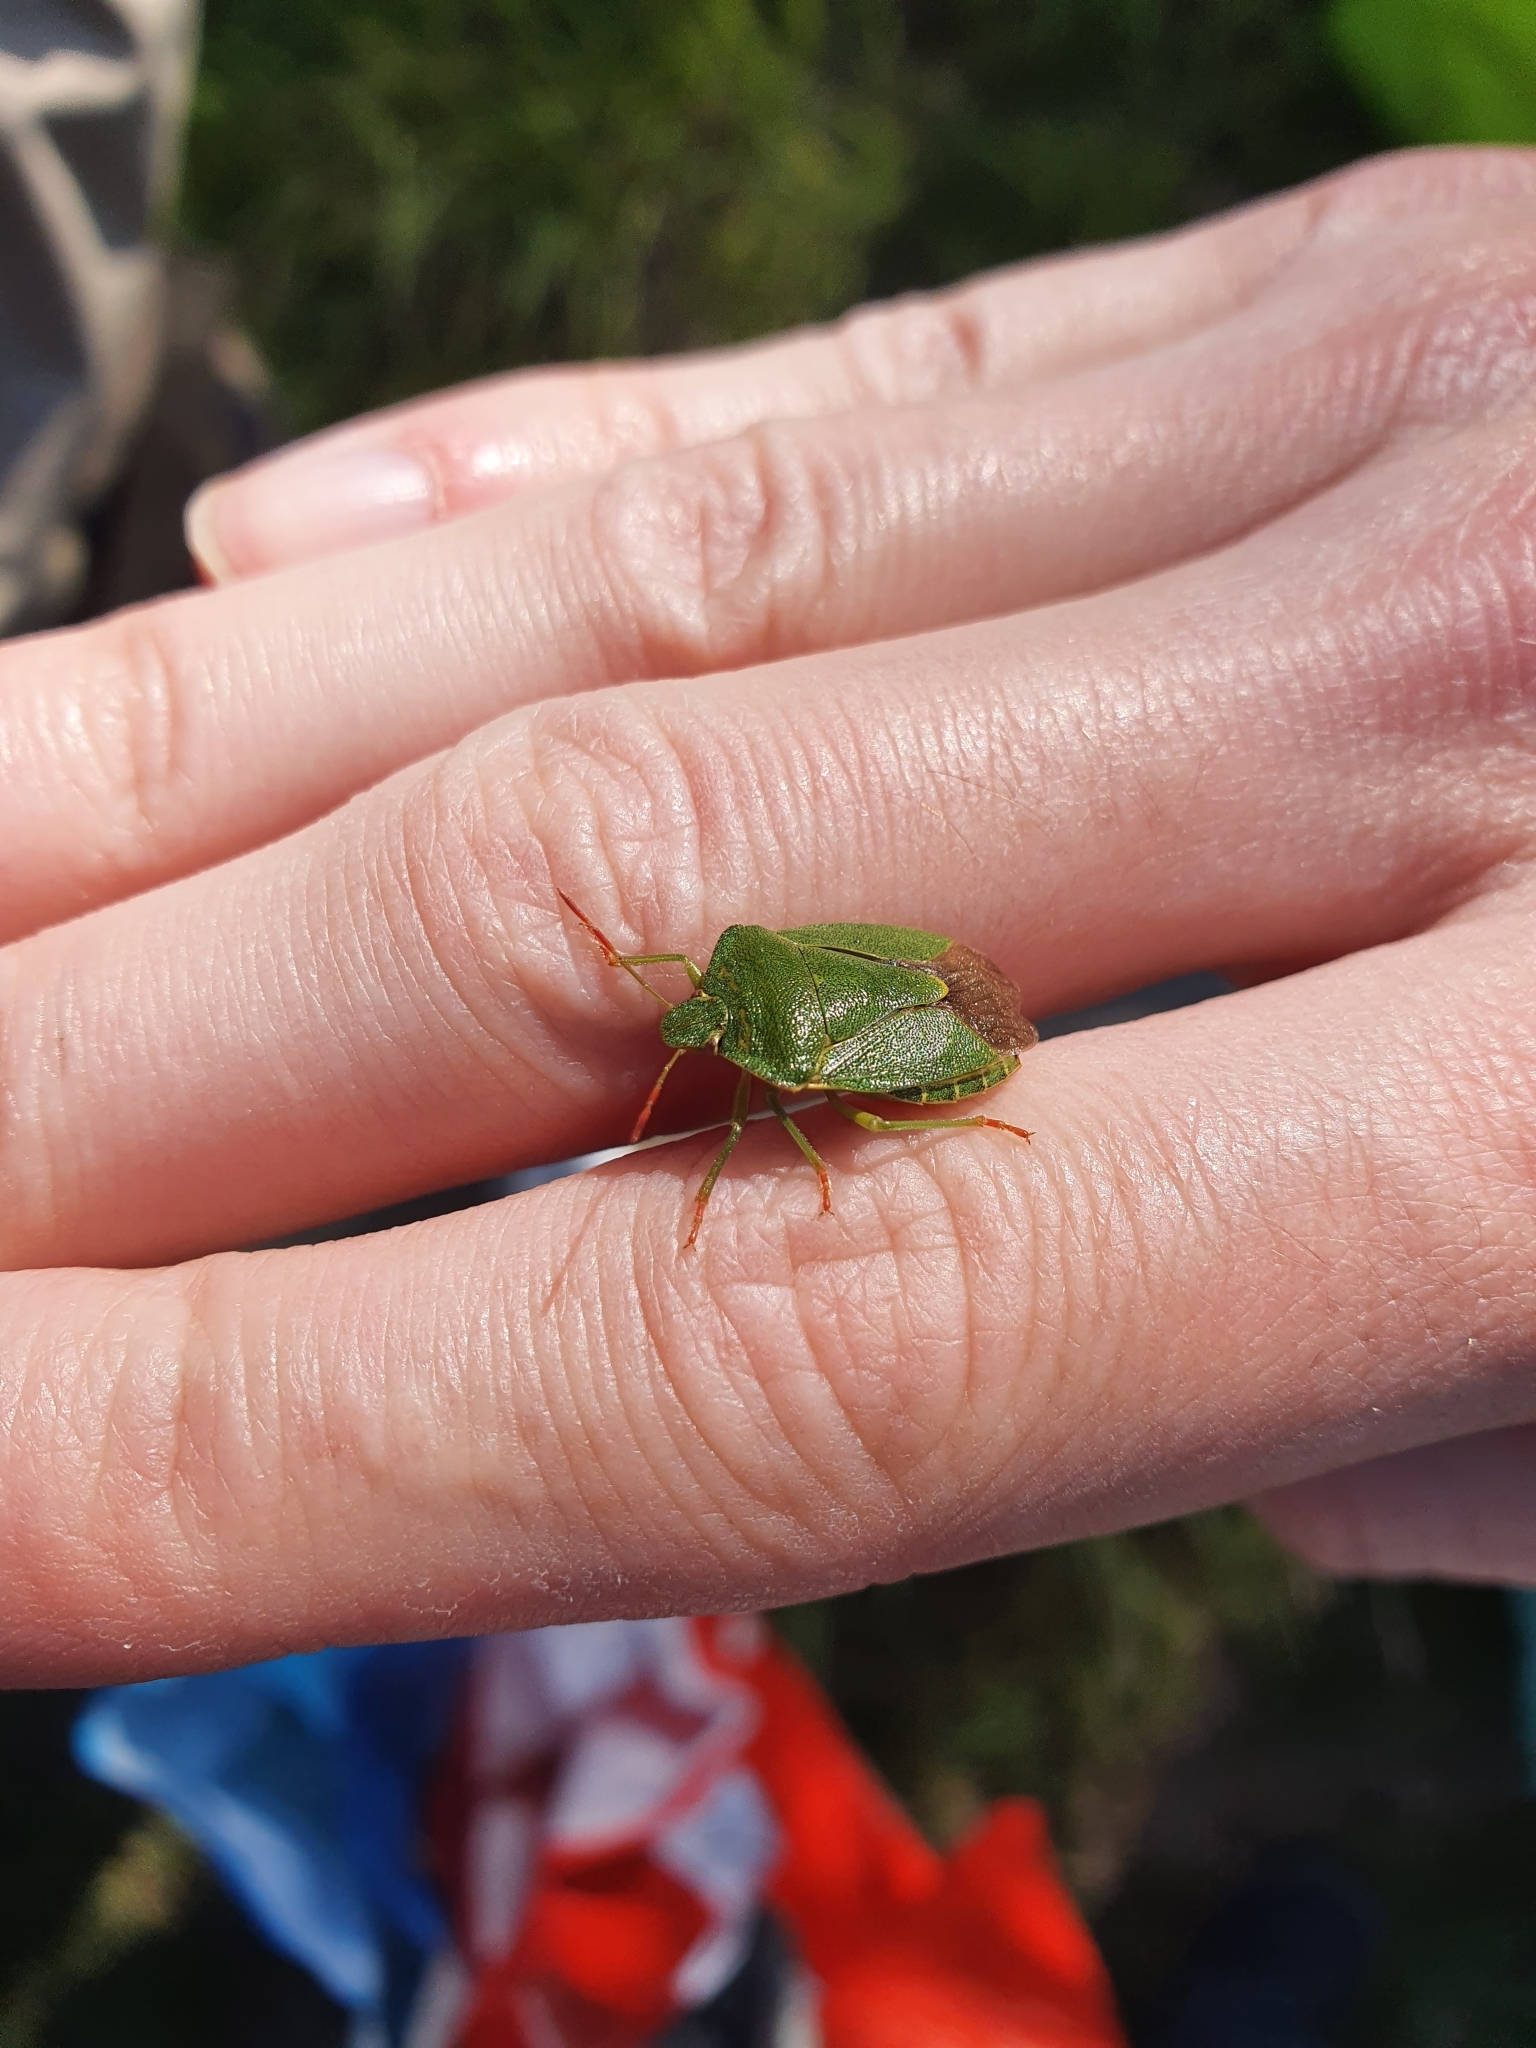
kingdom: Animalia
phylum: Arthropoda
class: Insecta
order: Hemiptera
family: Pentatomidae
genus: Palomena
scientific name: Palomena prasina
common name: Green shieldbug
